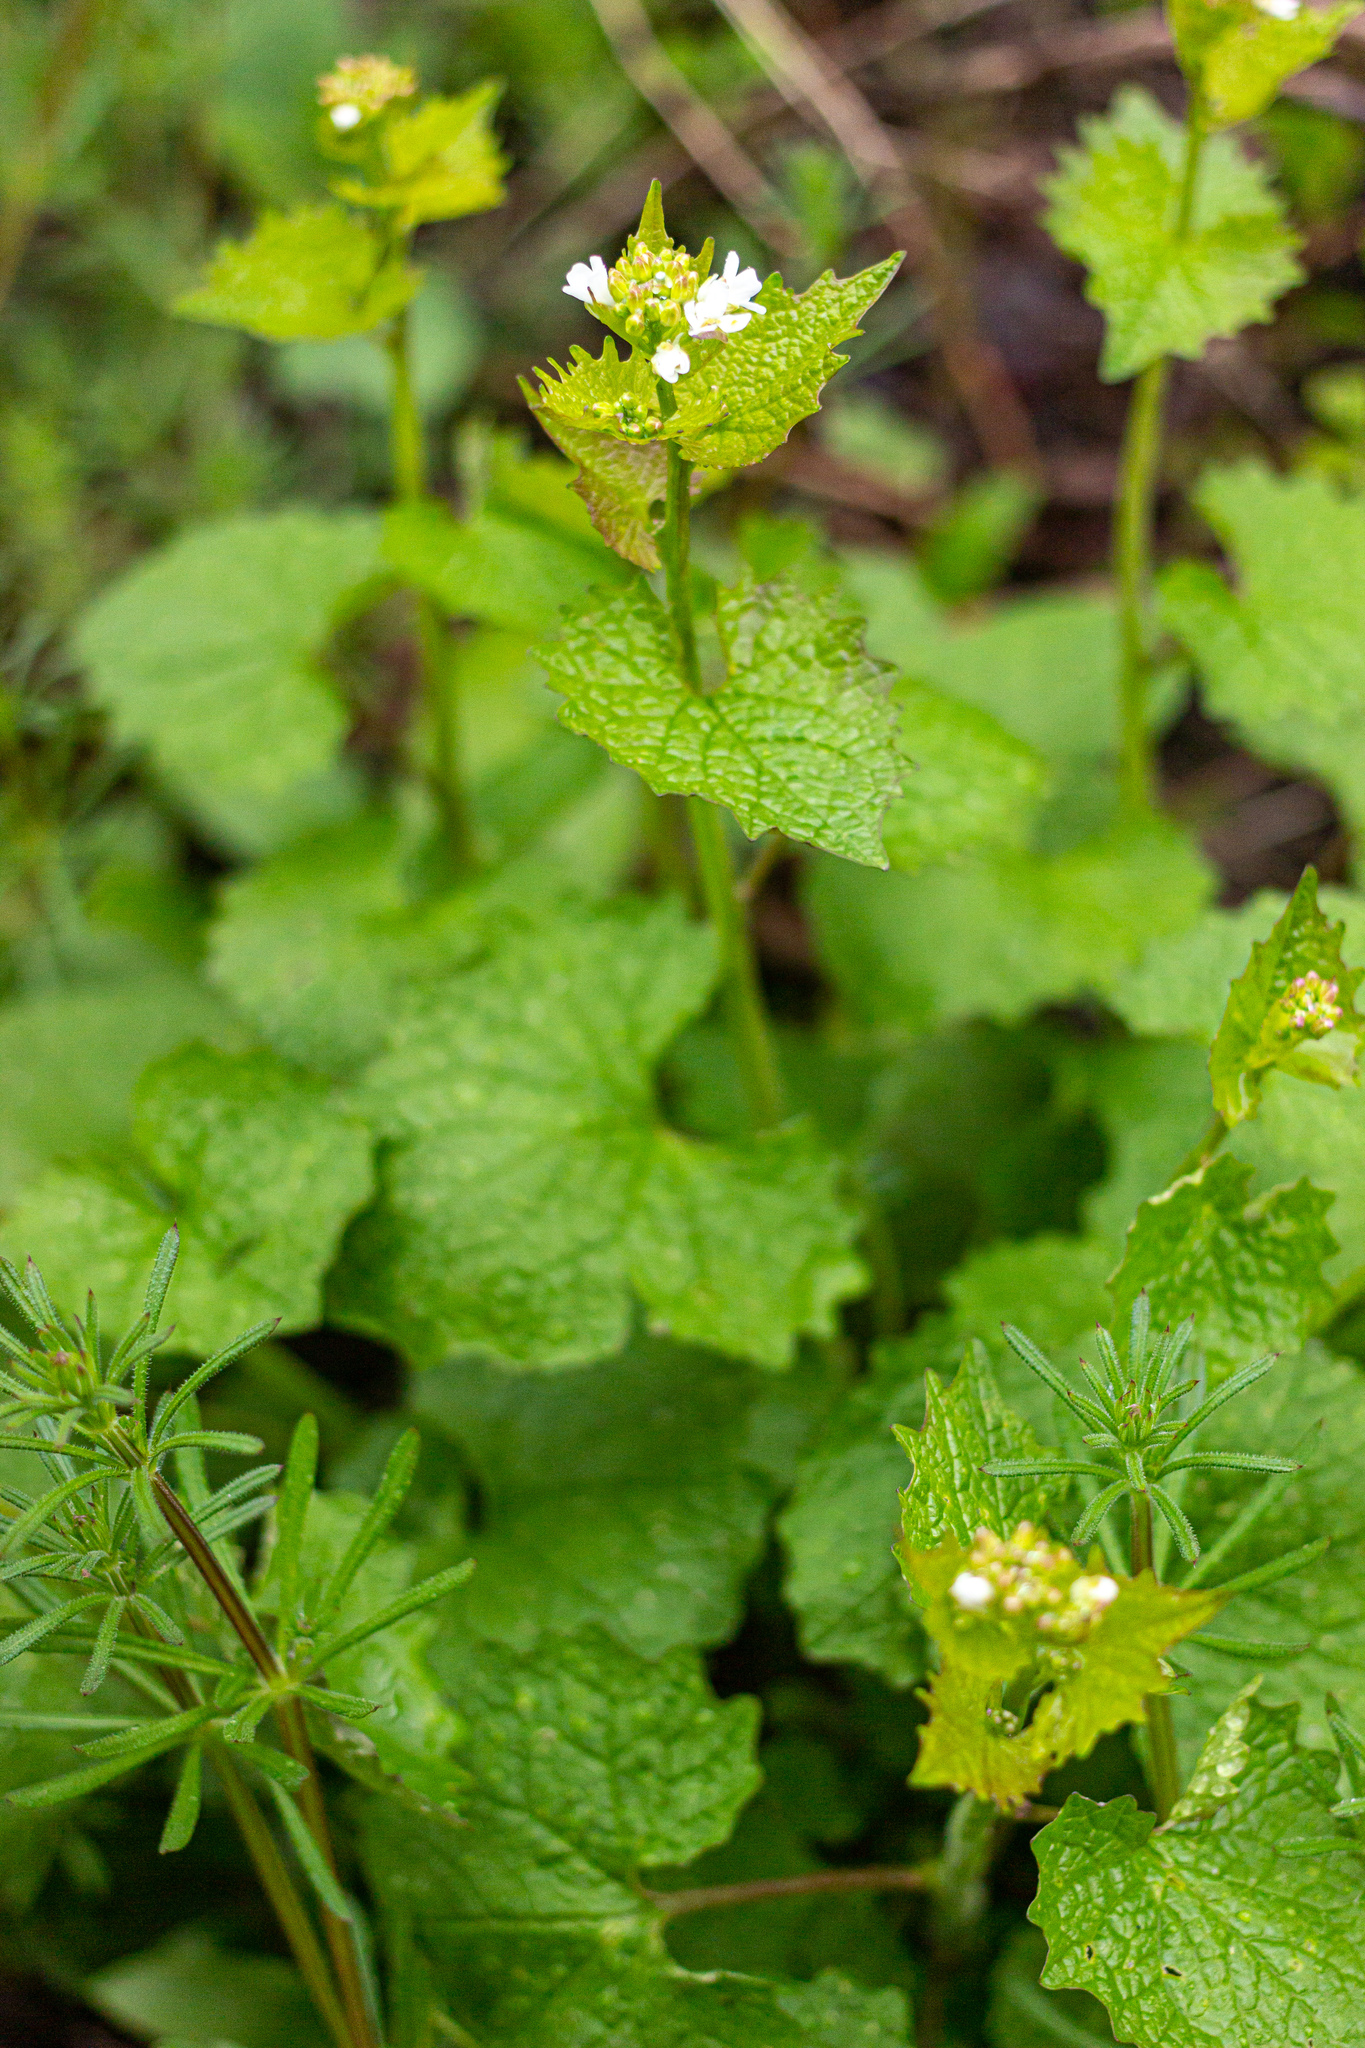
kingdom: Plantae
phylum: Tracheophyta
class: Magnoliopsida
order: Brassicales
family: Brassicaceae
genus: Alliaria
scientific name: Alliaria petiolata
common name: Garlic mustard
